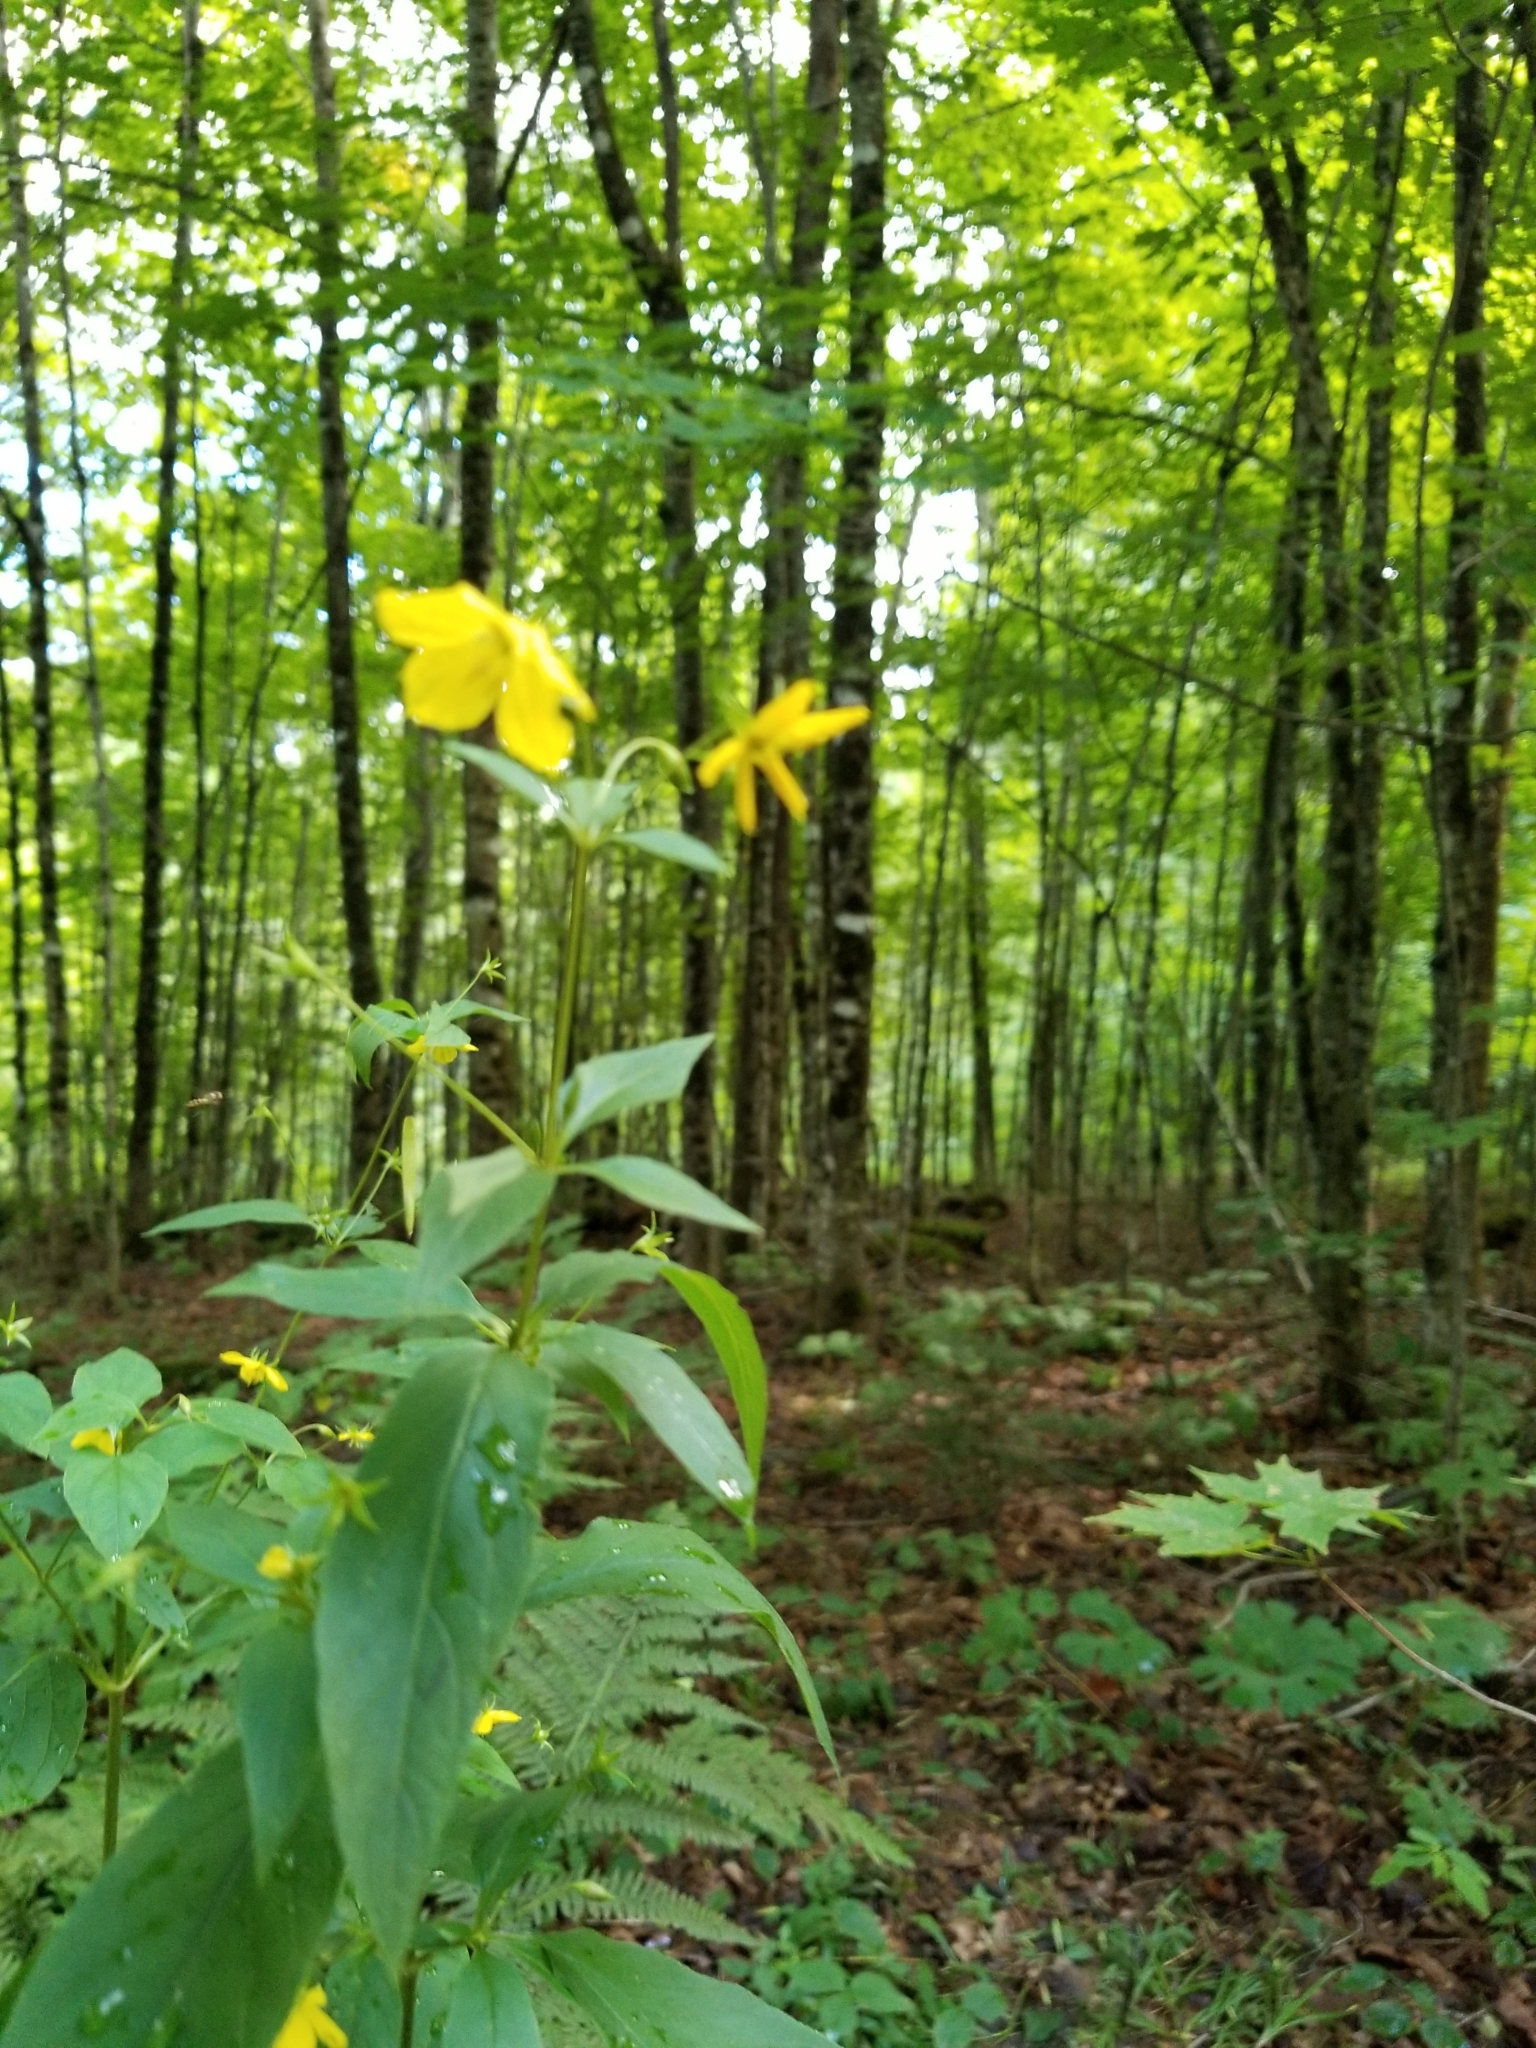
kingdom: Plantae
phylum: Tracheophyta
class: Magnoliopsida
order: Ericales
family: Primulaceae
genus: Lysimachia
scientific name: Lysimachia ciliata
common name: Fringed loosestrife
